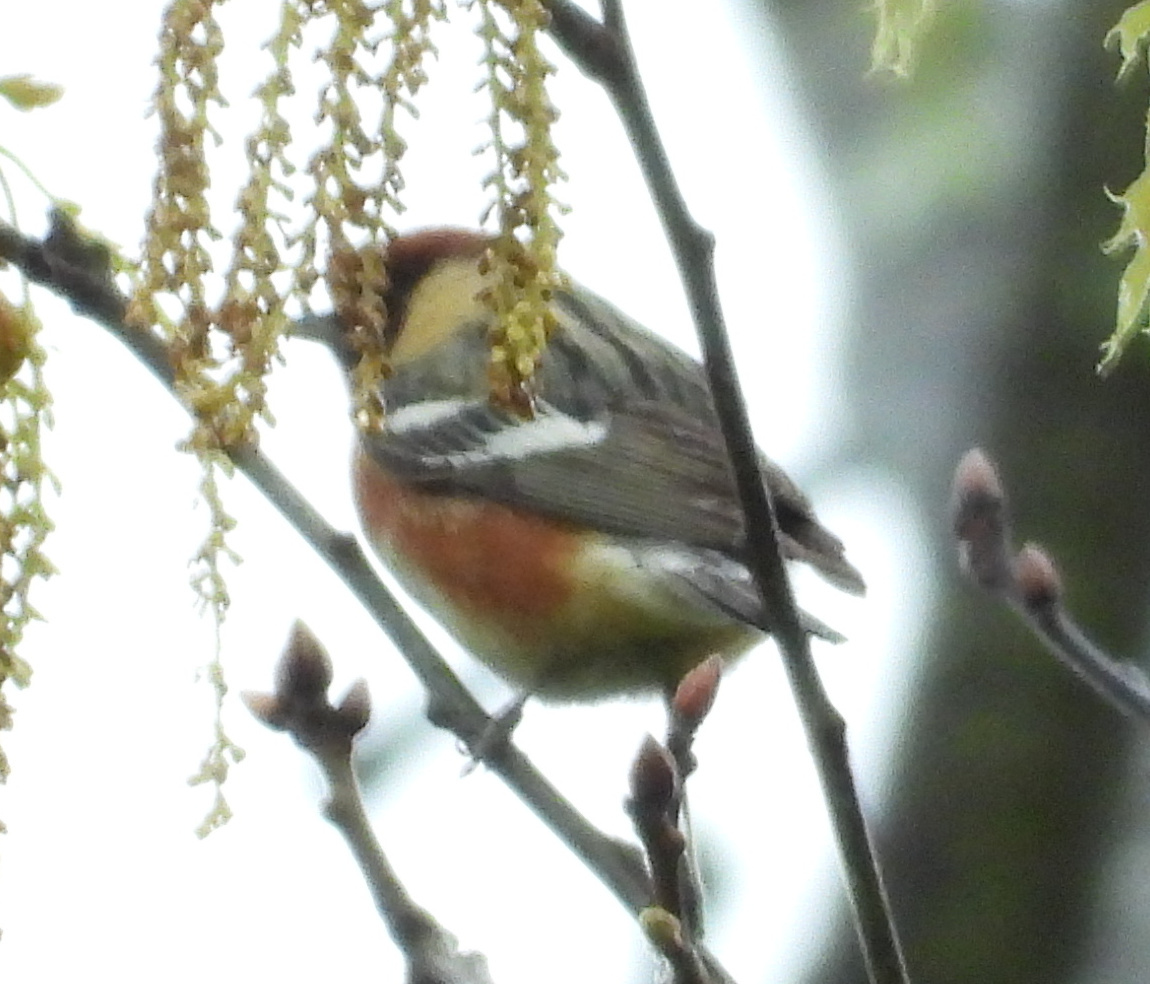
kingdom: Animalia
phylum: Chordata
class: Aves
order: Passeriformes
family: Parulidae
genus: Setophaga
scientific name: Setophaga castanea
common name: Bay-breasted warbler
